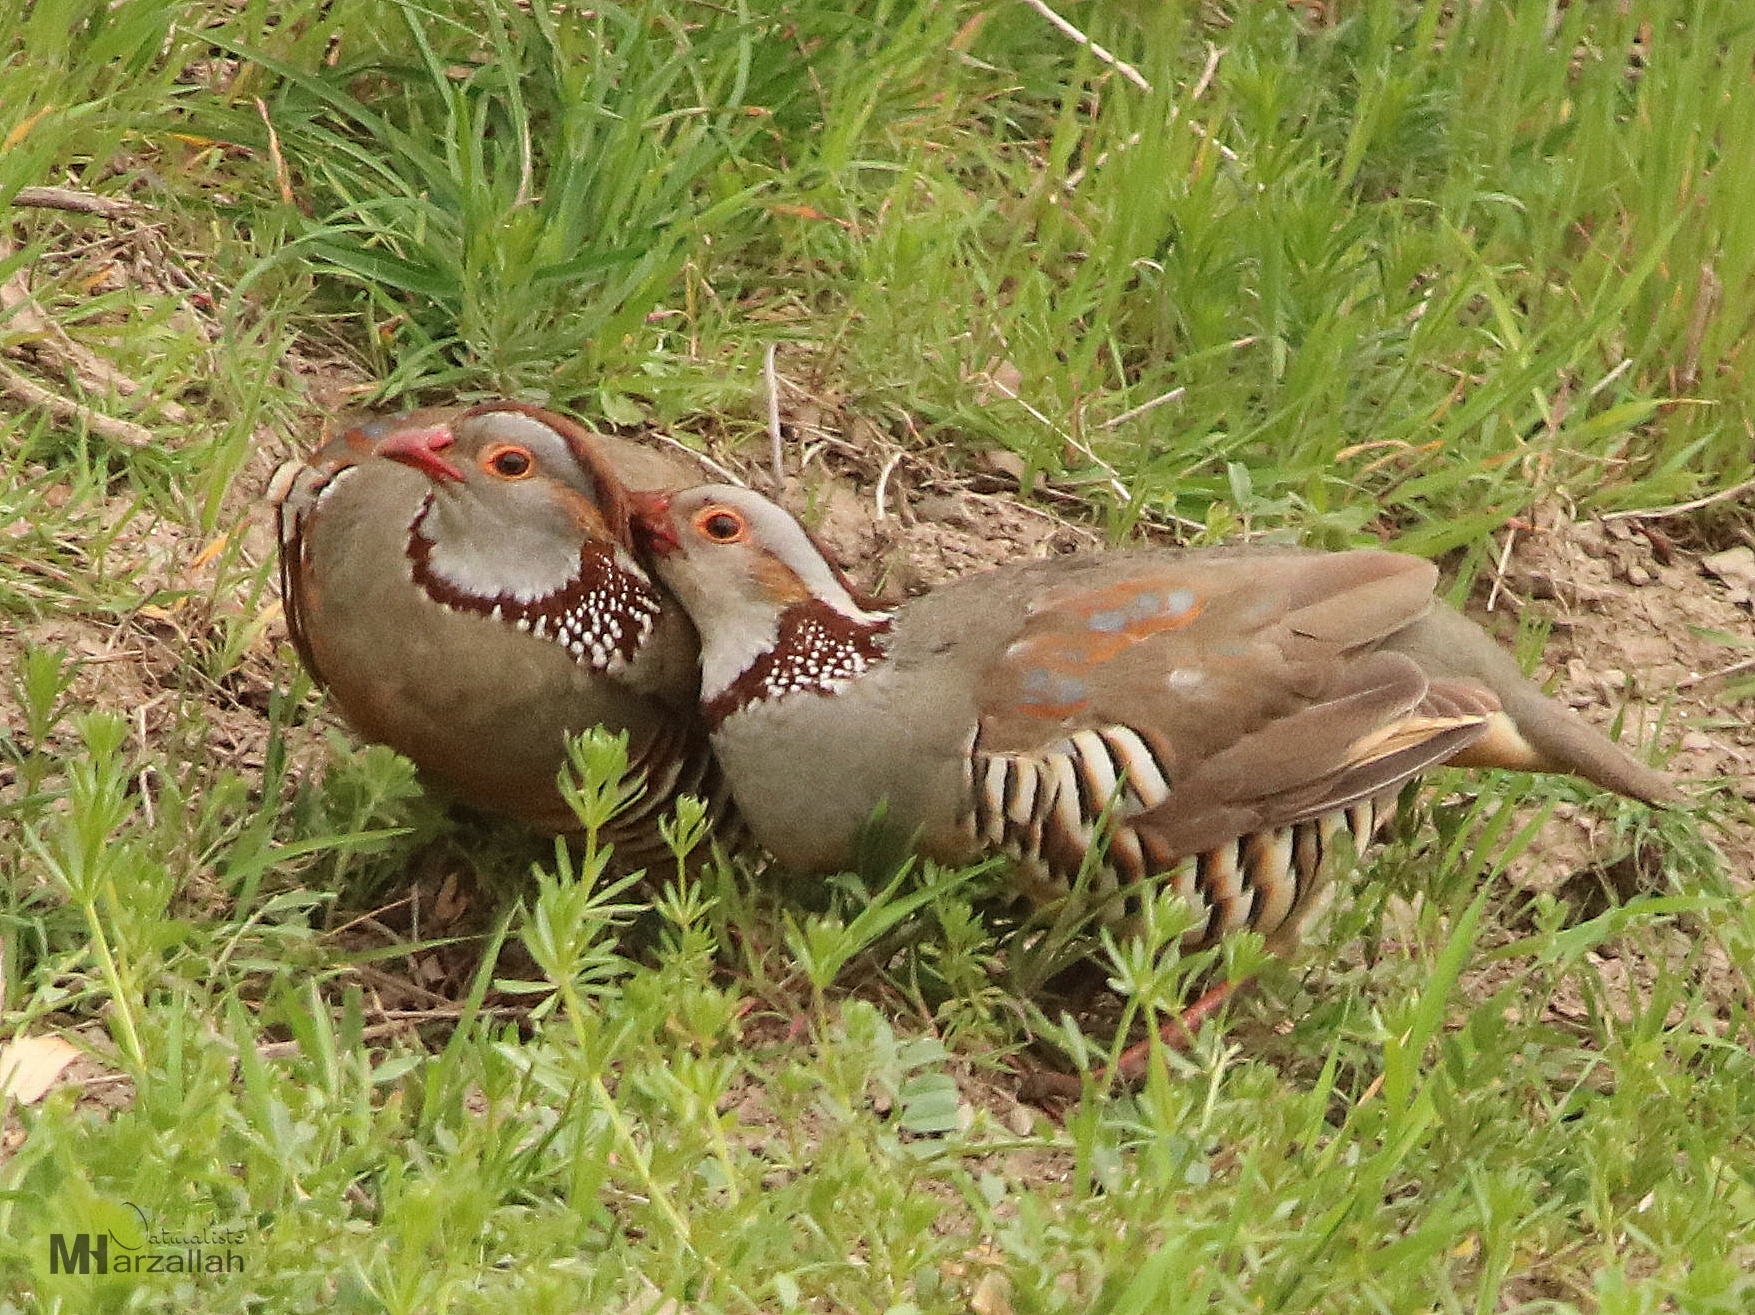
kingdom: Animalia
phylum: Chordata
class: Aves
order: Galliformes
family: Phasianidae
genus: Alectoris
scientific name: Alectoris barbara
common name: Barbary partridge
